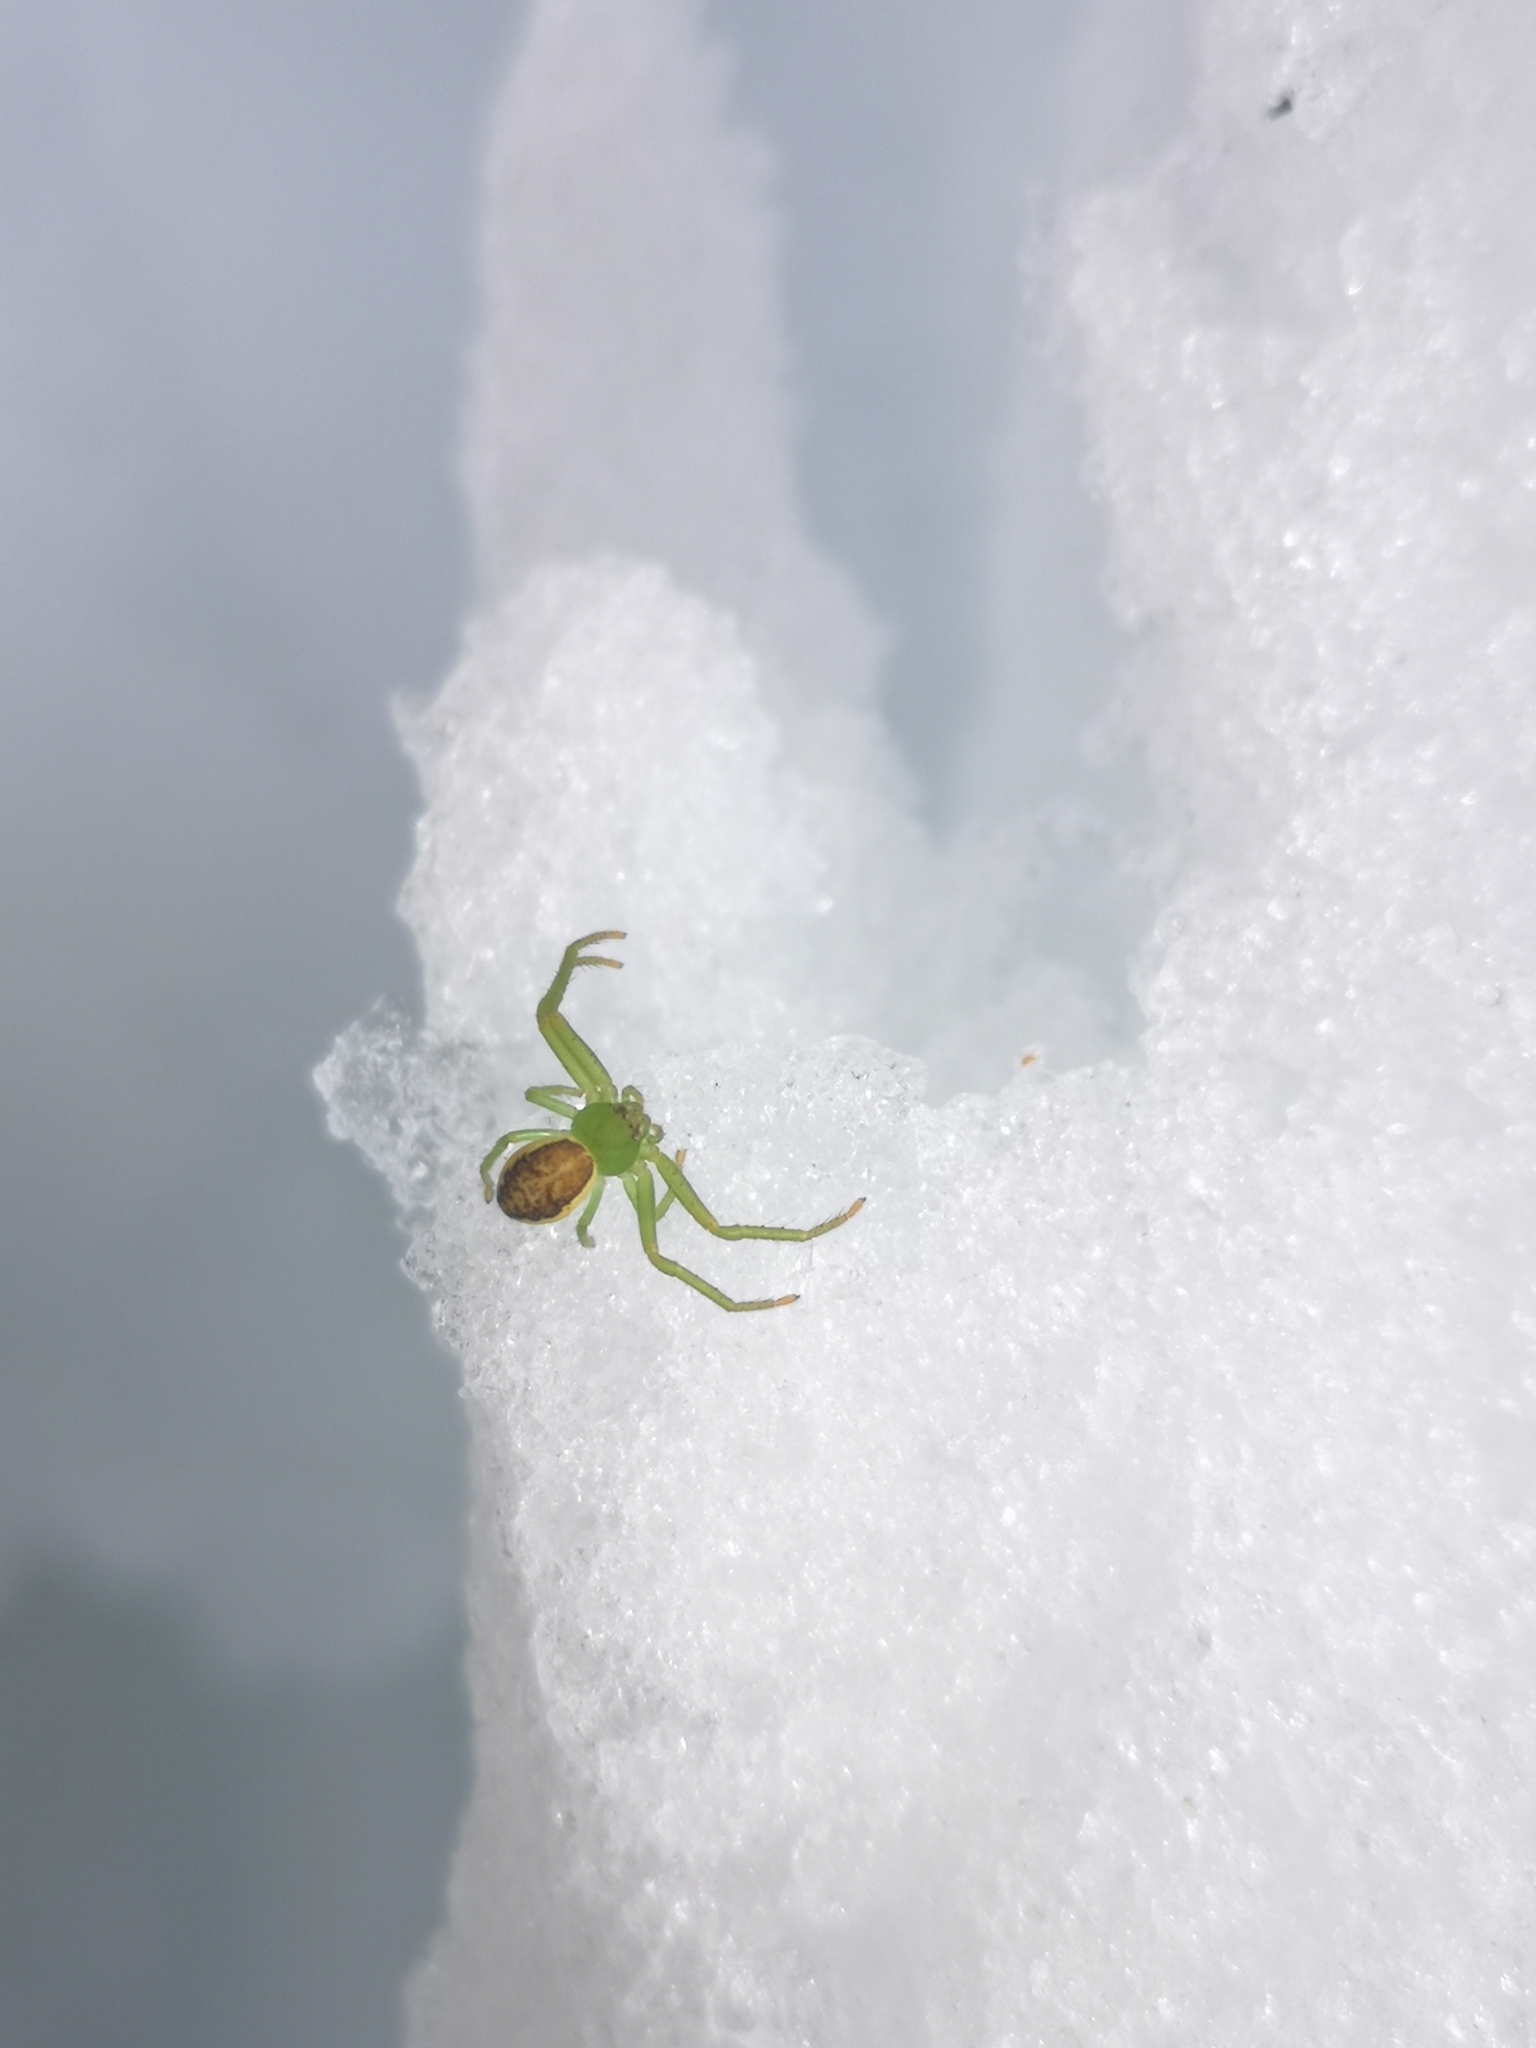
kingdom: Animalia
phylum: Arthropoda
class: Arachnida
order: Araneae
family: Thomisidae
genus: Diaea
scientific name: Diaea dorsata
